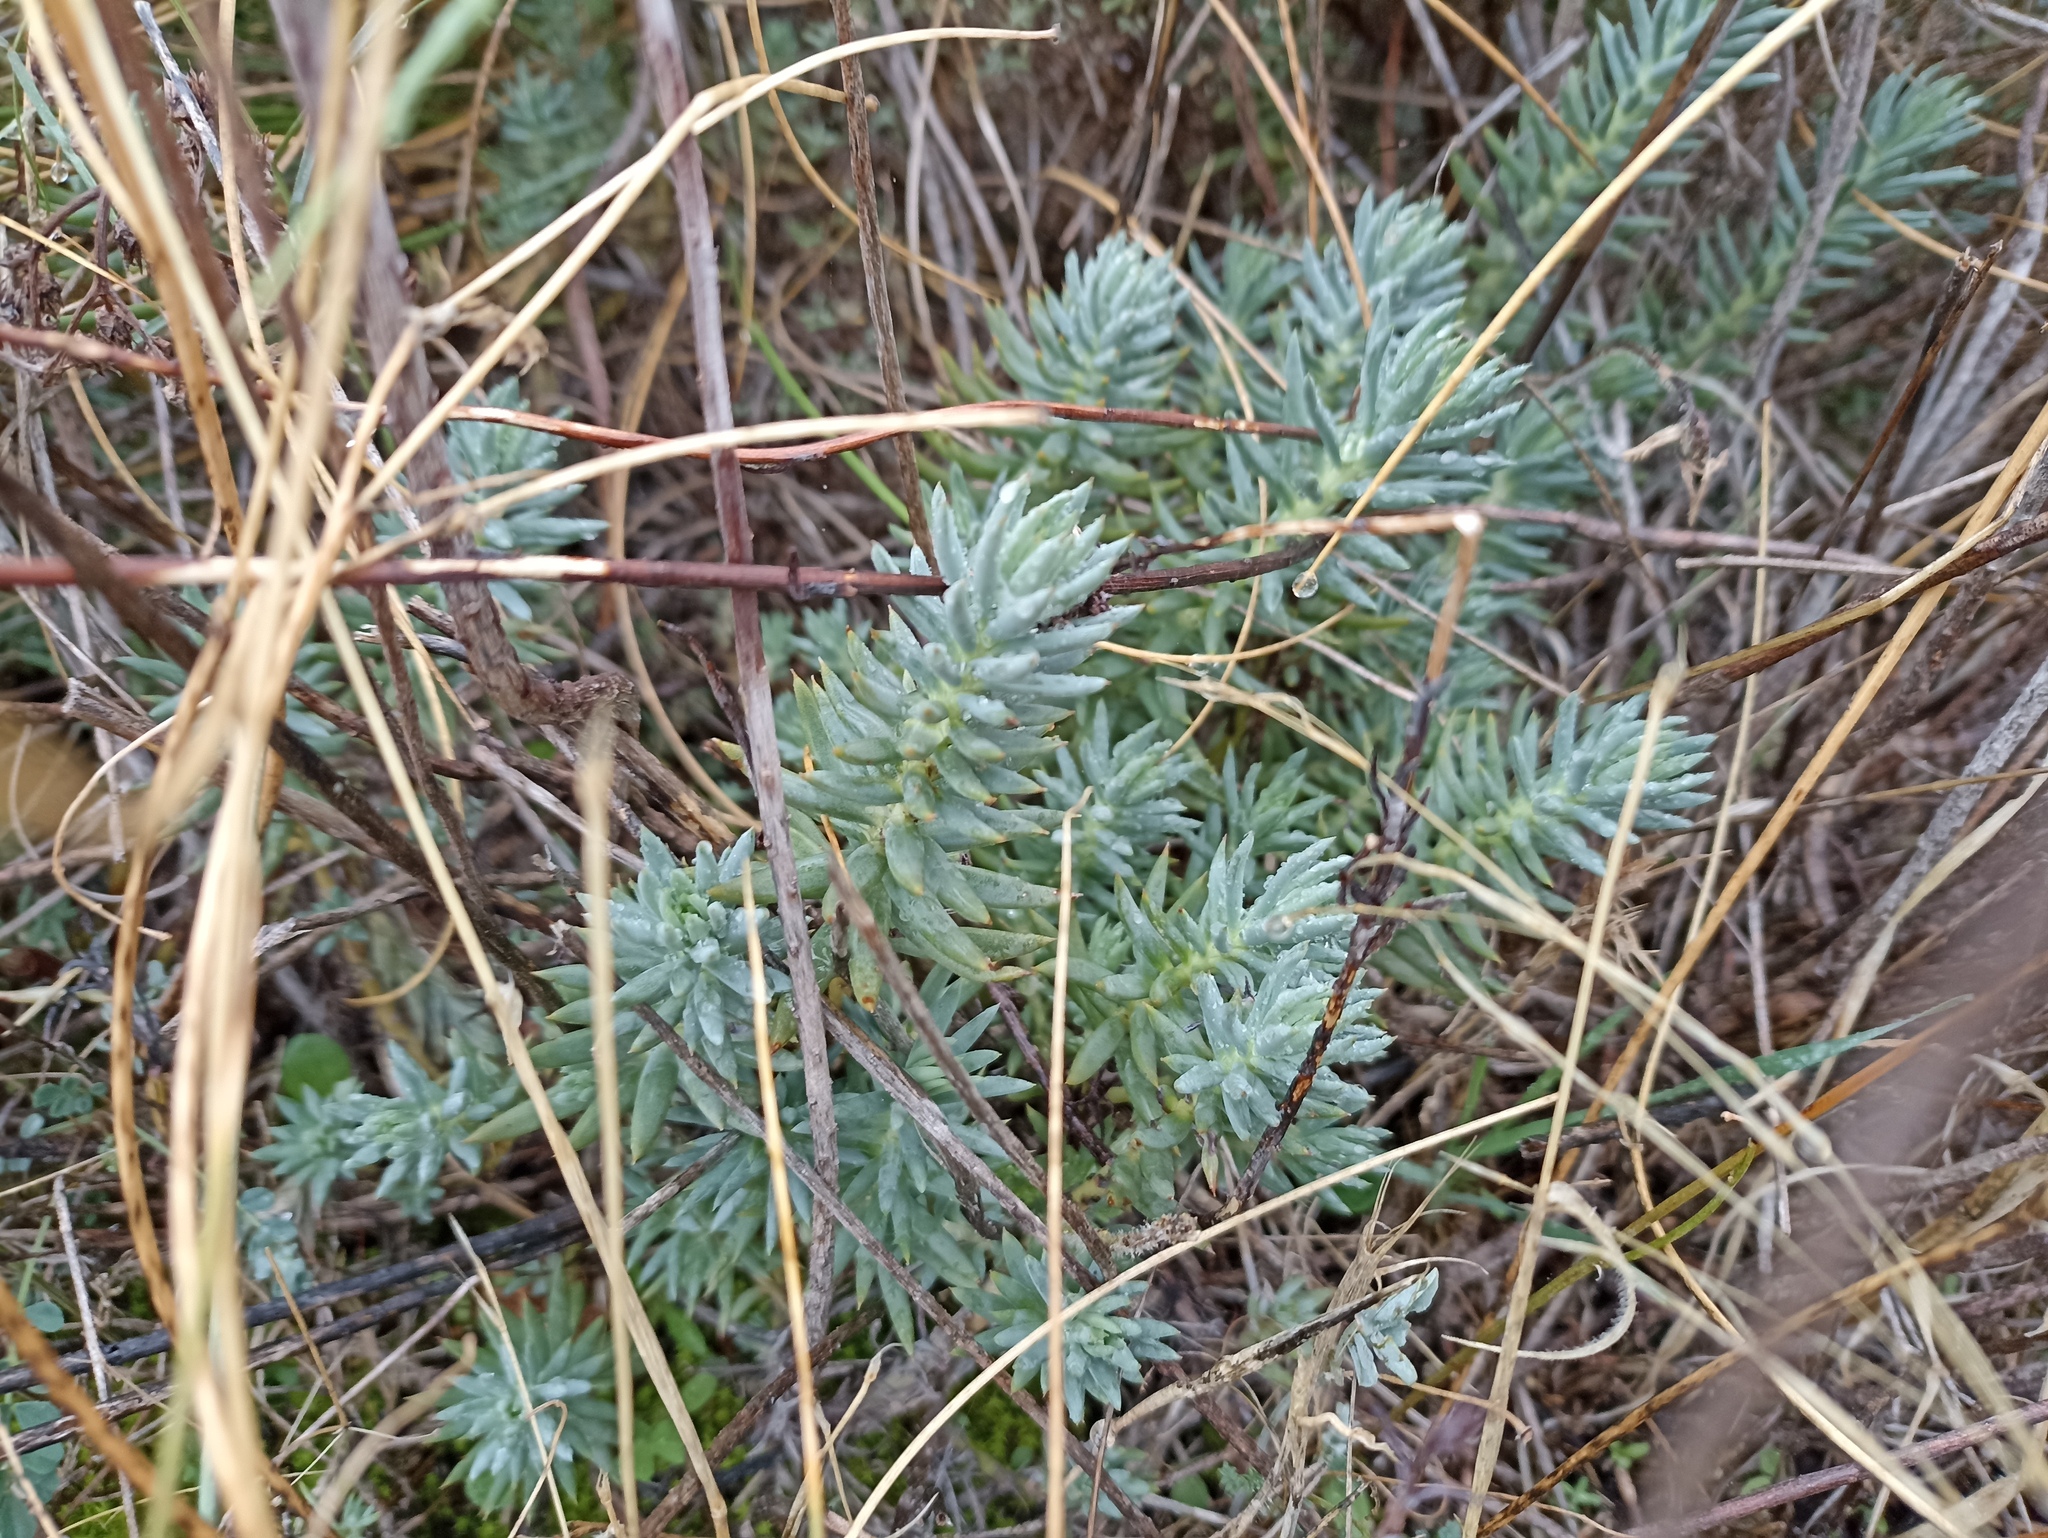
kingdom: Plantae
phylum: Tracheophyta
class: Magnoliopsida
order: Saxifragales
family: Crassulaceae
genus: Petrosedum
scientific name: Petrosedum sediforme
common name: Pale stonecrop
